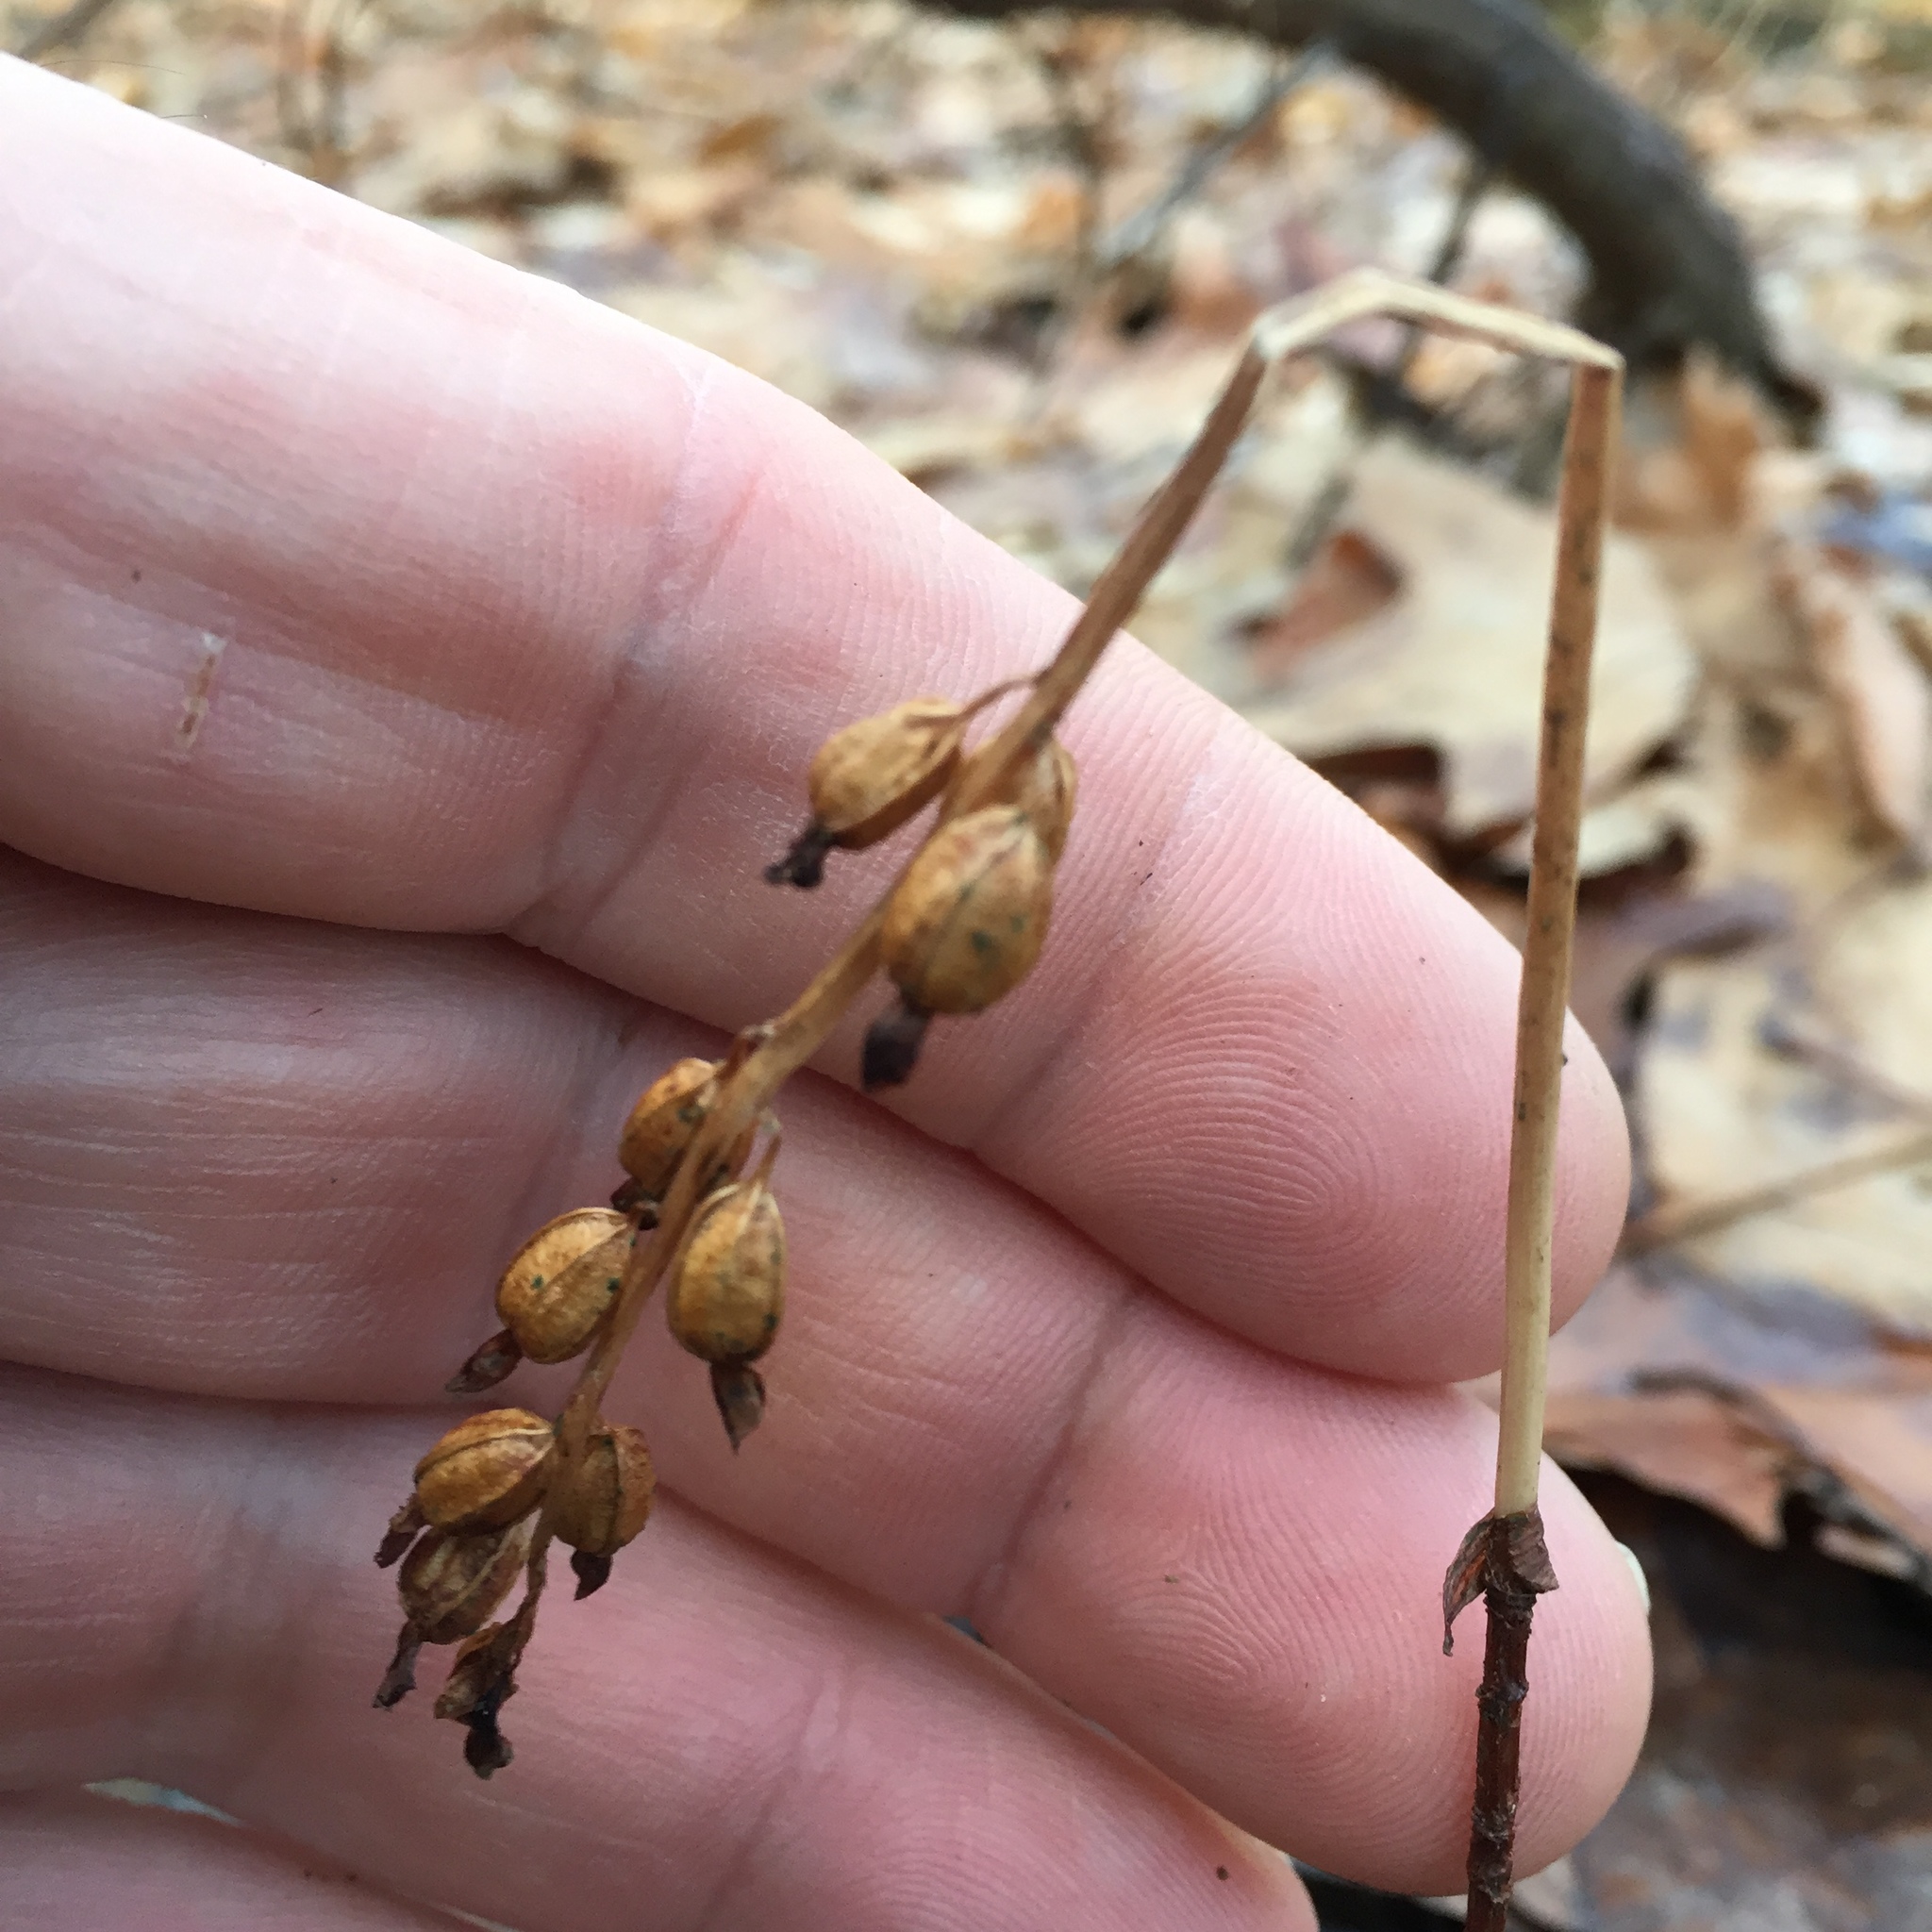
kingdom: Plantae
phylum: Tracheophyta
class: Liliopsida
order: Asparagales
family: Orchidaceae
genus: Corallorhiza
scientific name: Corallorhiza odontorhiza
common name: Autumn coralroot
